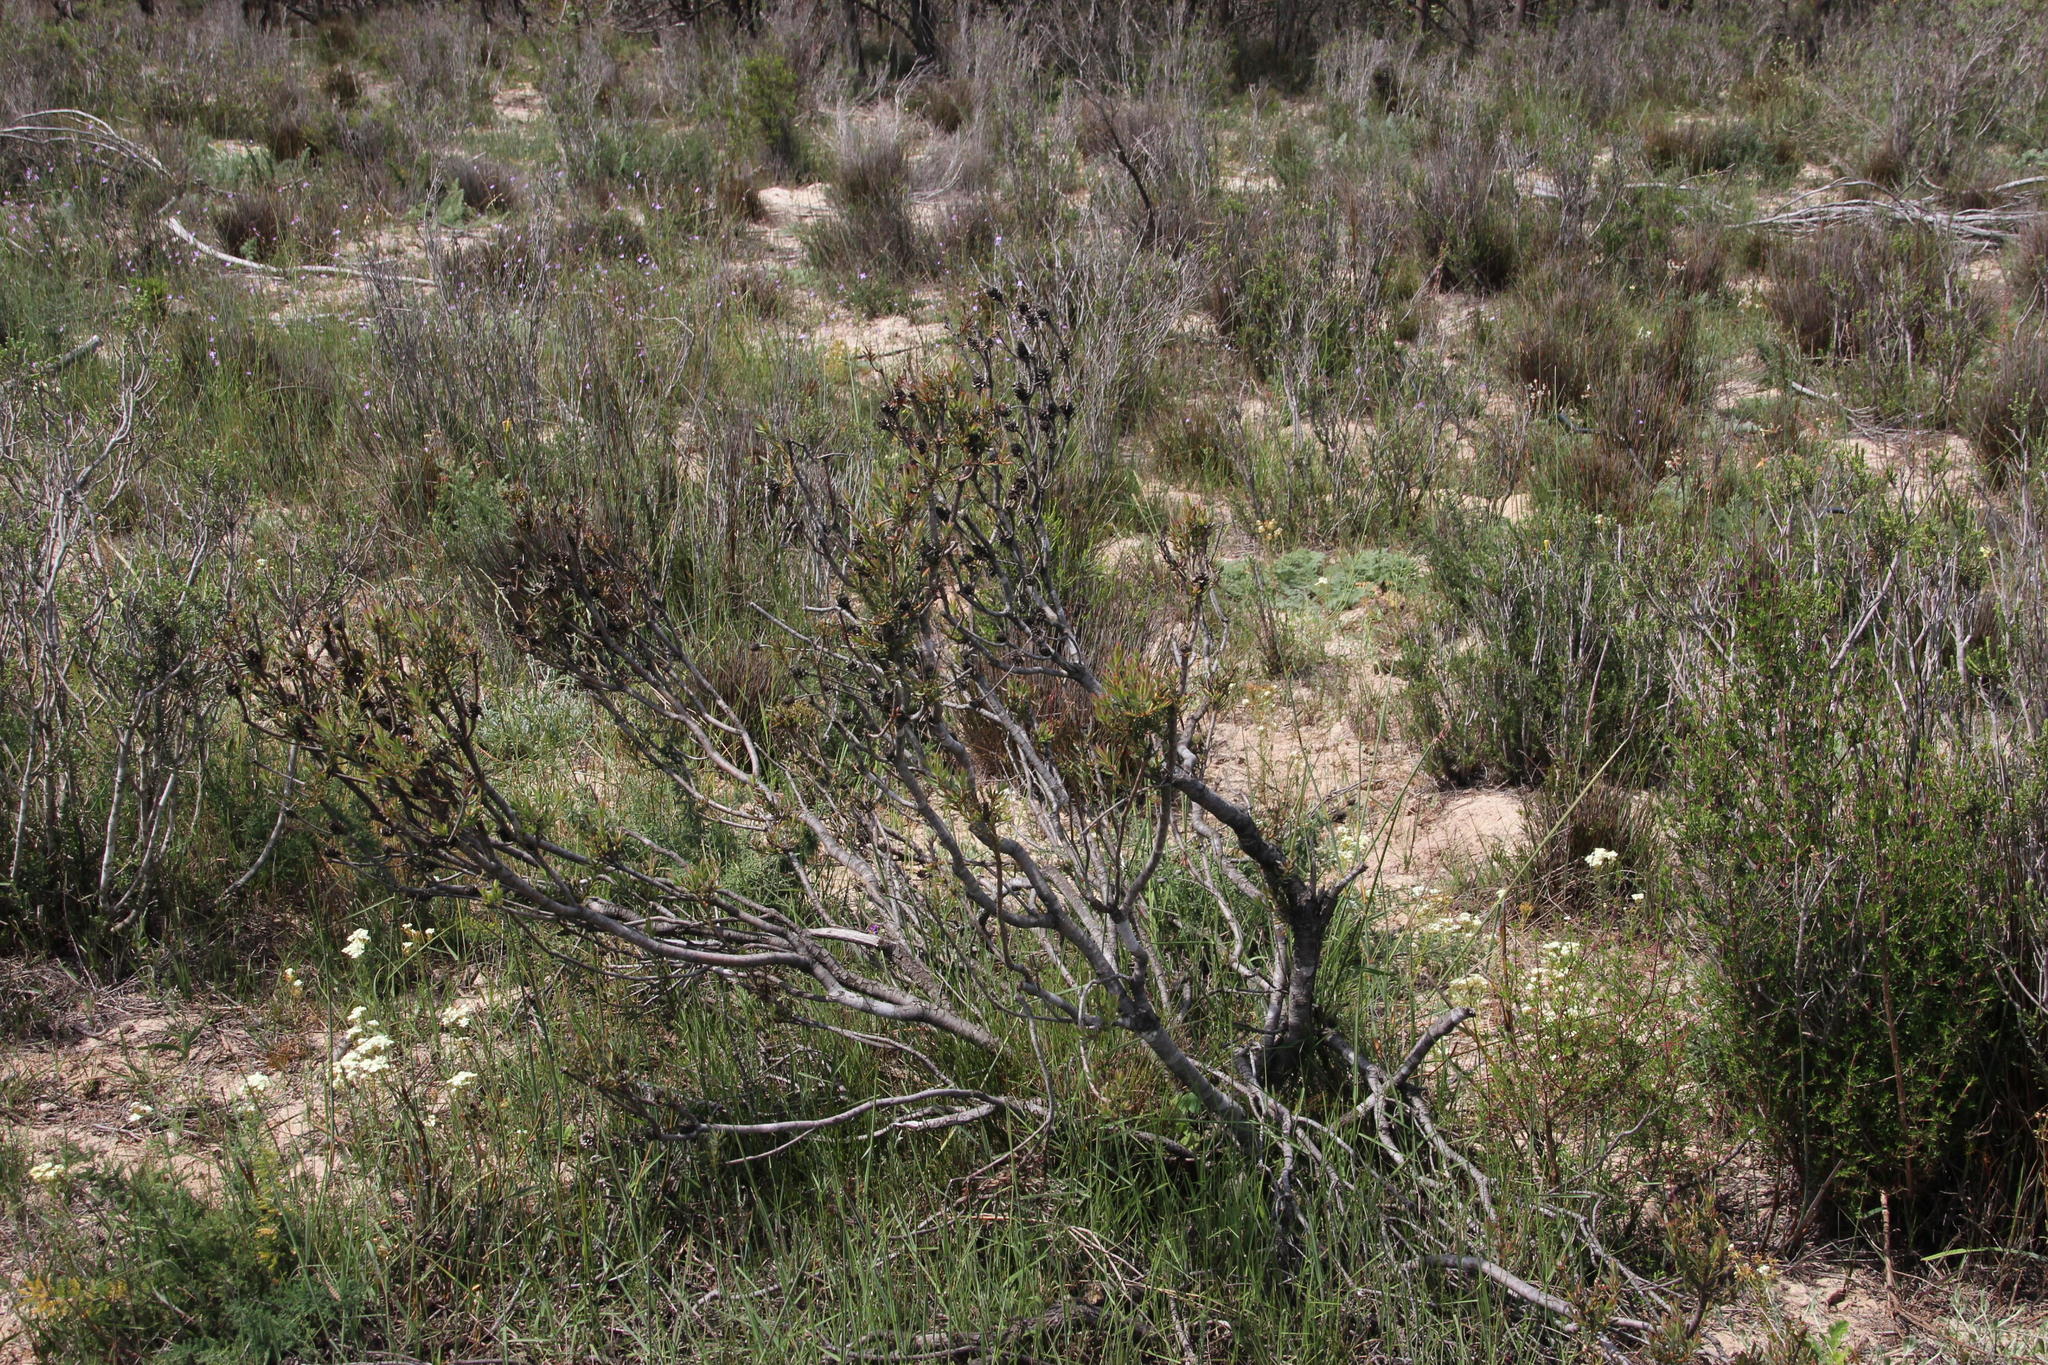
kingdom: Plantae
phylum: Tracheophyta
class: Magnoliopsida
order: Proteales
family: Proteaceae
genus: Leucadendron
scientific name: Leucadendron lanigerum
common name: Shale conebush
